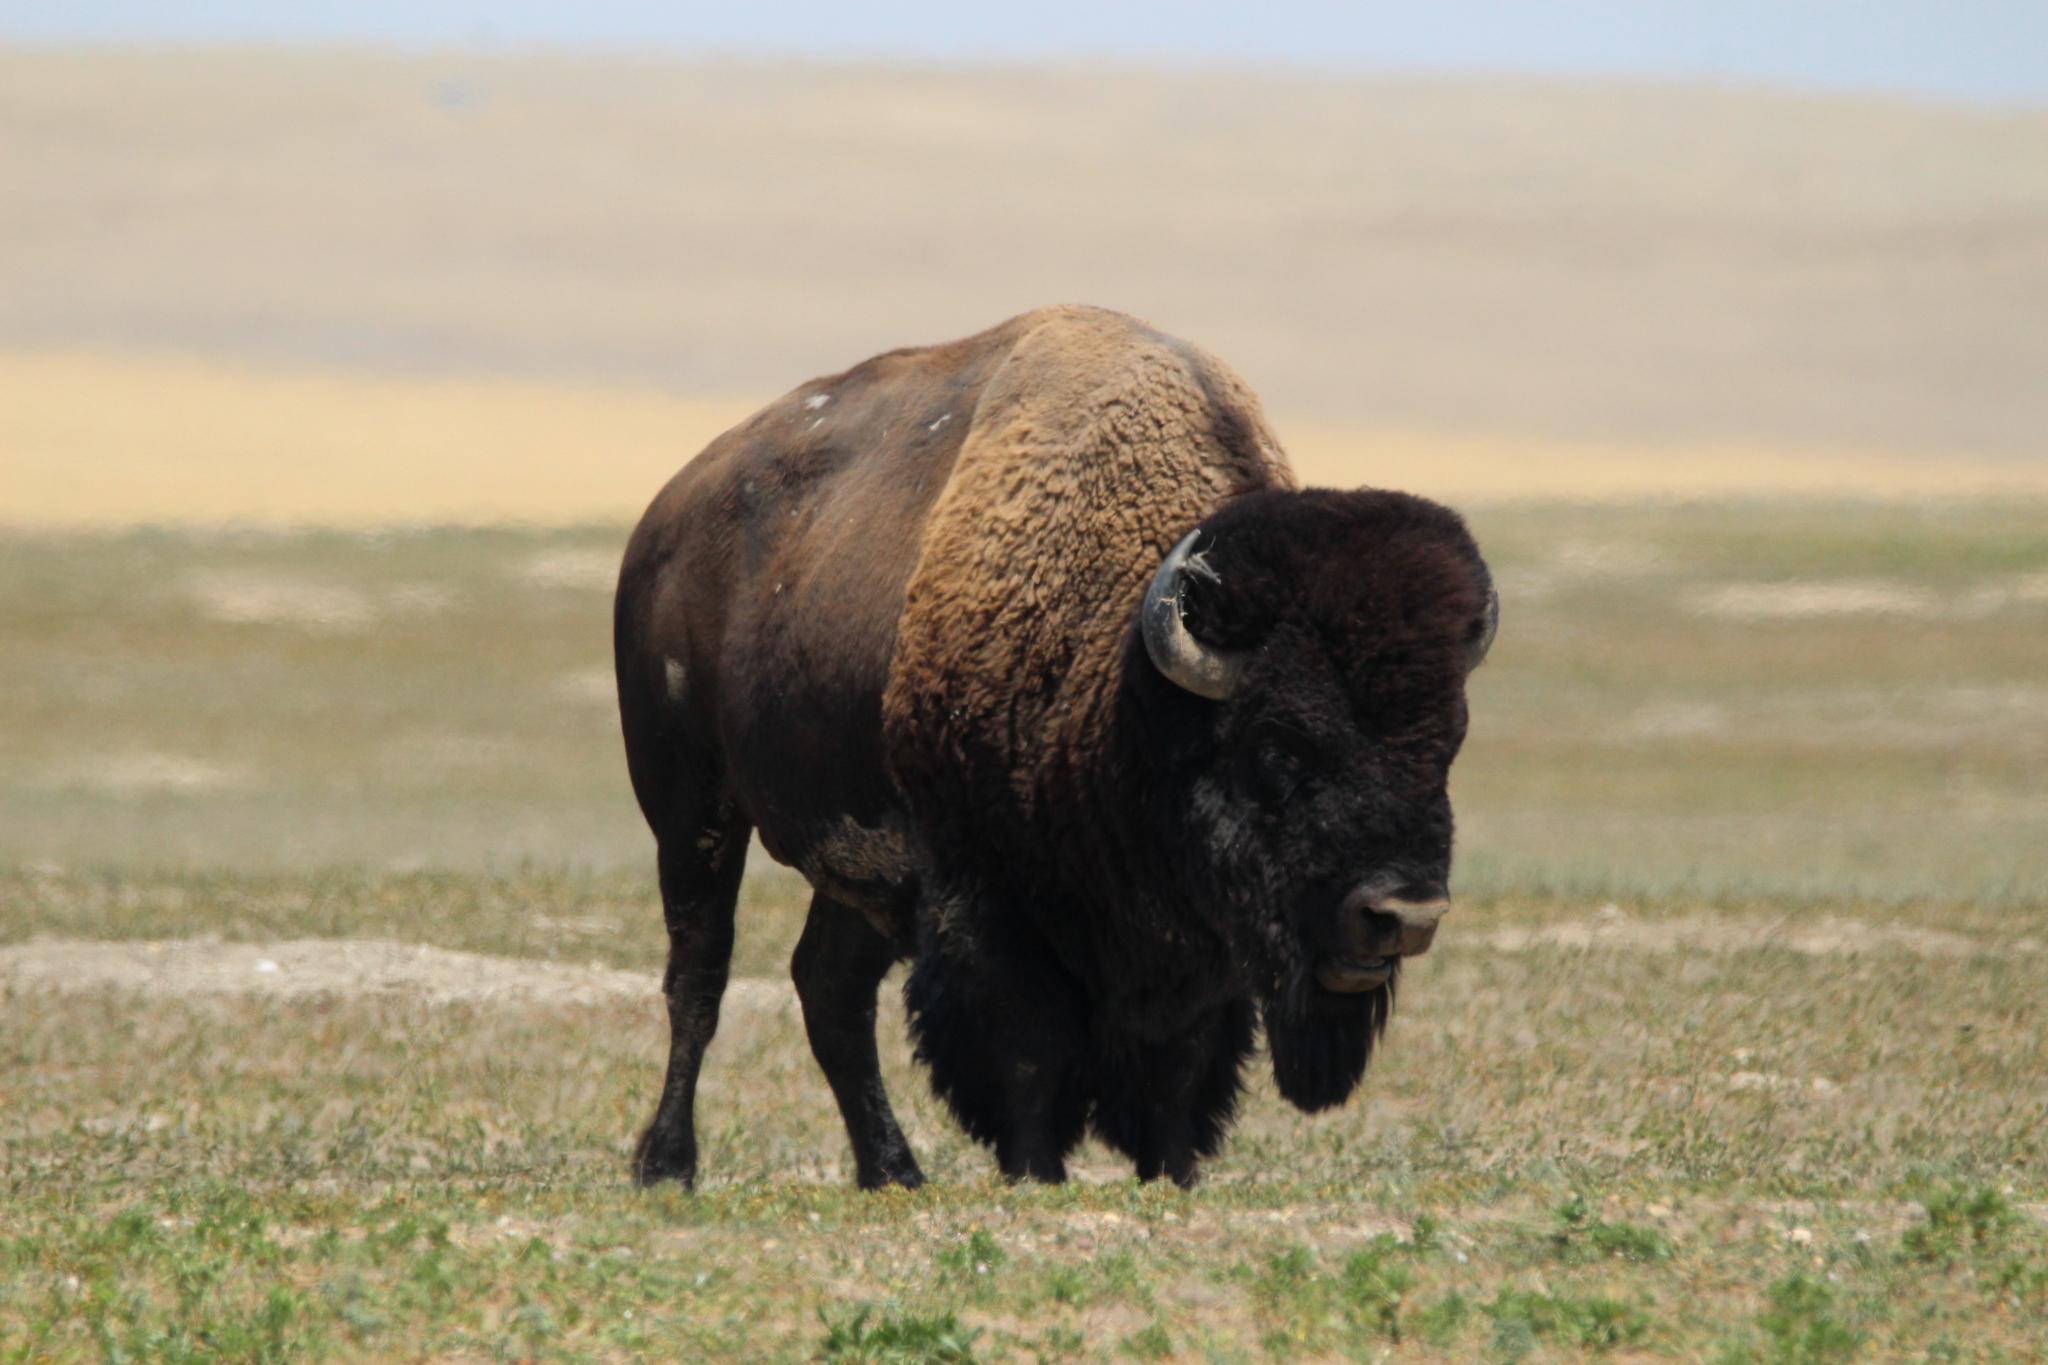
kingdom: Animalia
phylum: Chordata
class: Mammalia
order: Artiodactyla
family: Bovidae
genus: Bison
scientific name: Bison bison
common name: American bison
